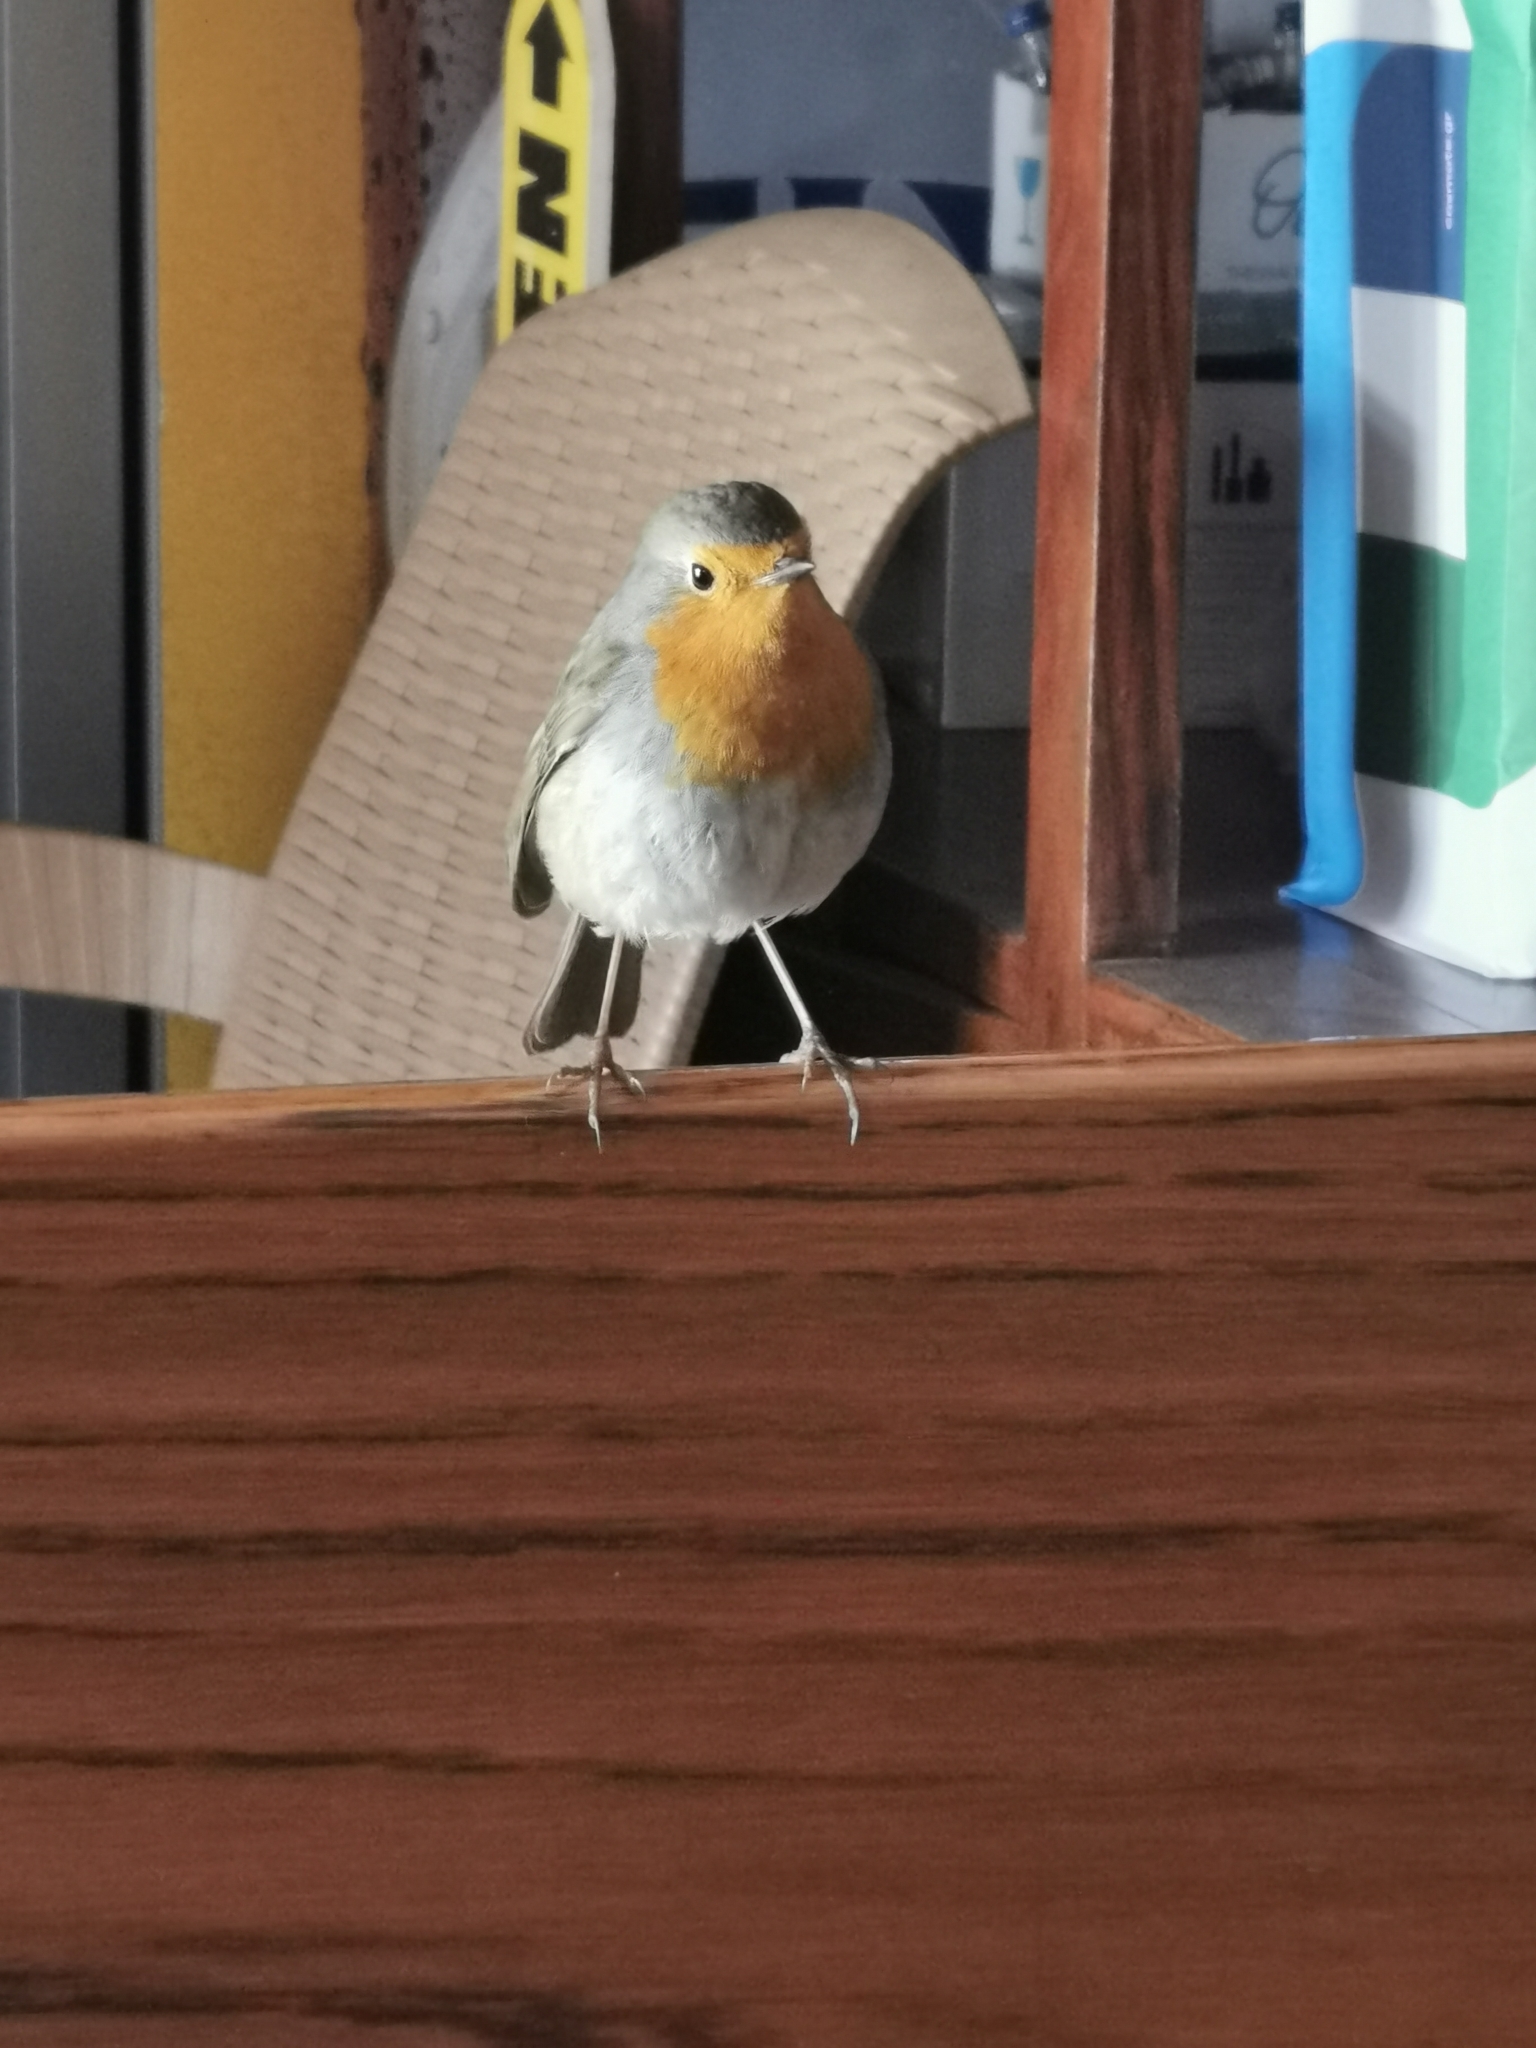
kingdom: Animalia
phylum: Chordata
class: Aves
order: Passeriformes
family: Muscicapidae
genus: Erithacus
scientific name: Erithacus rubecula
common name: European robin
